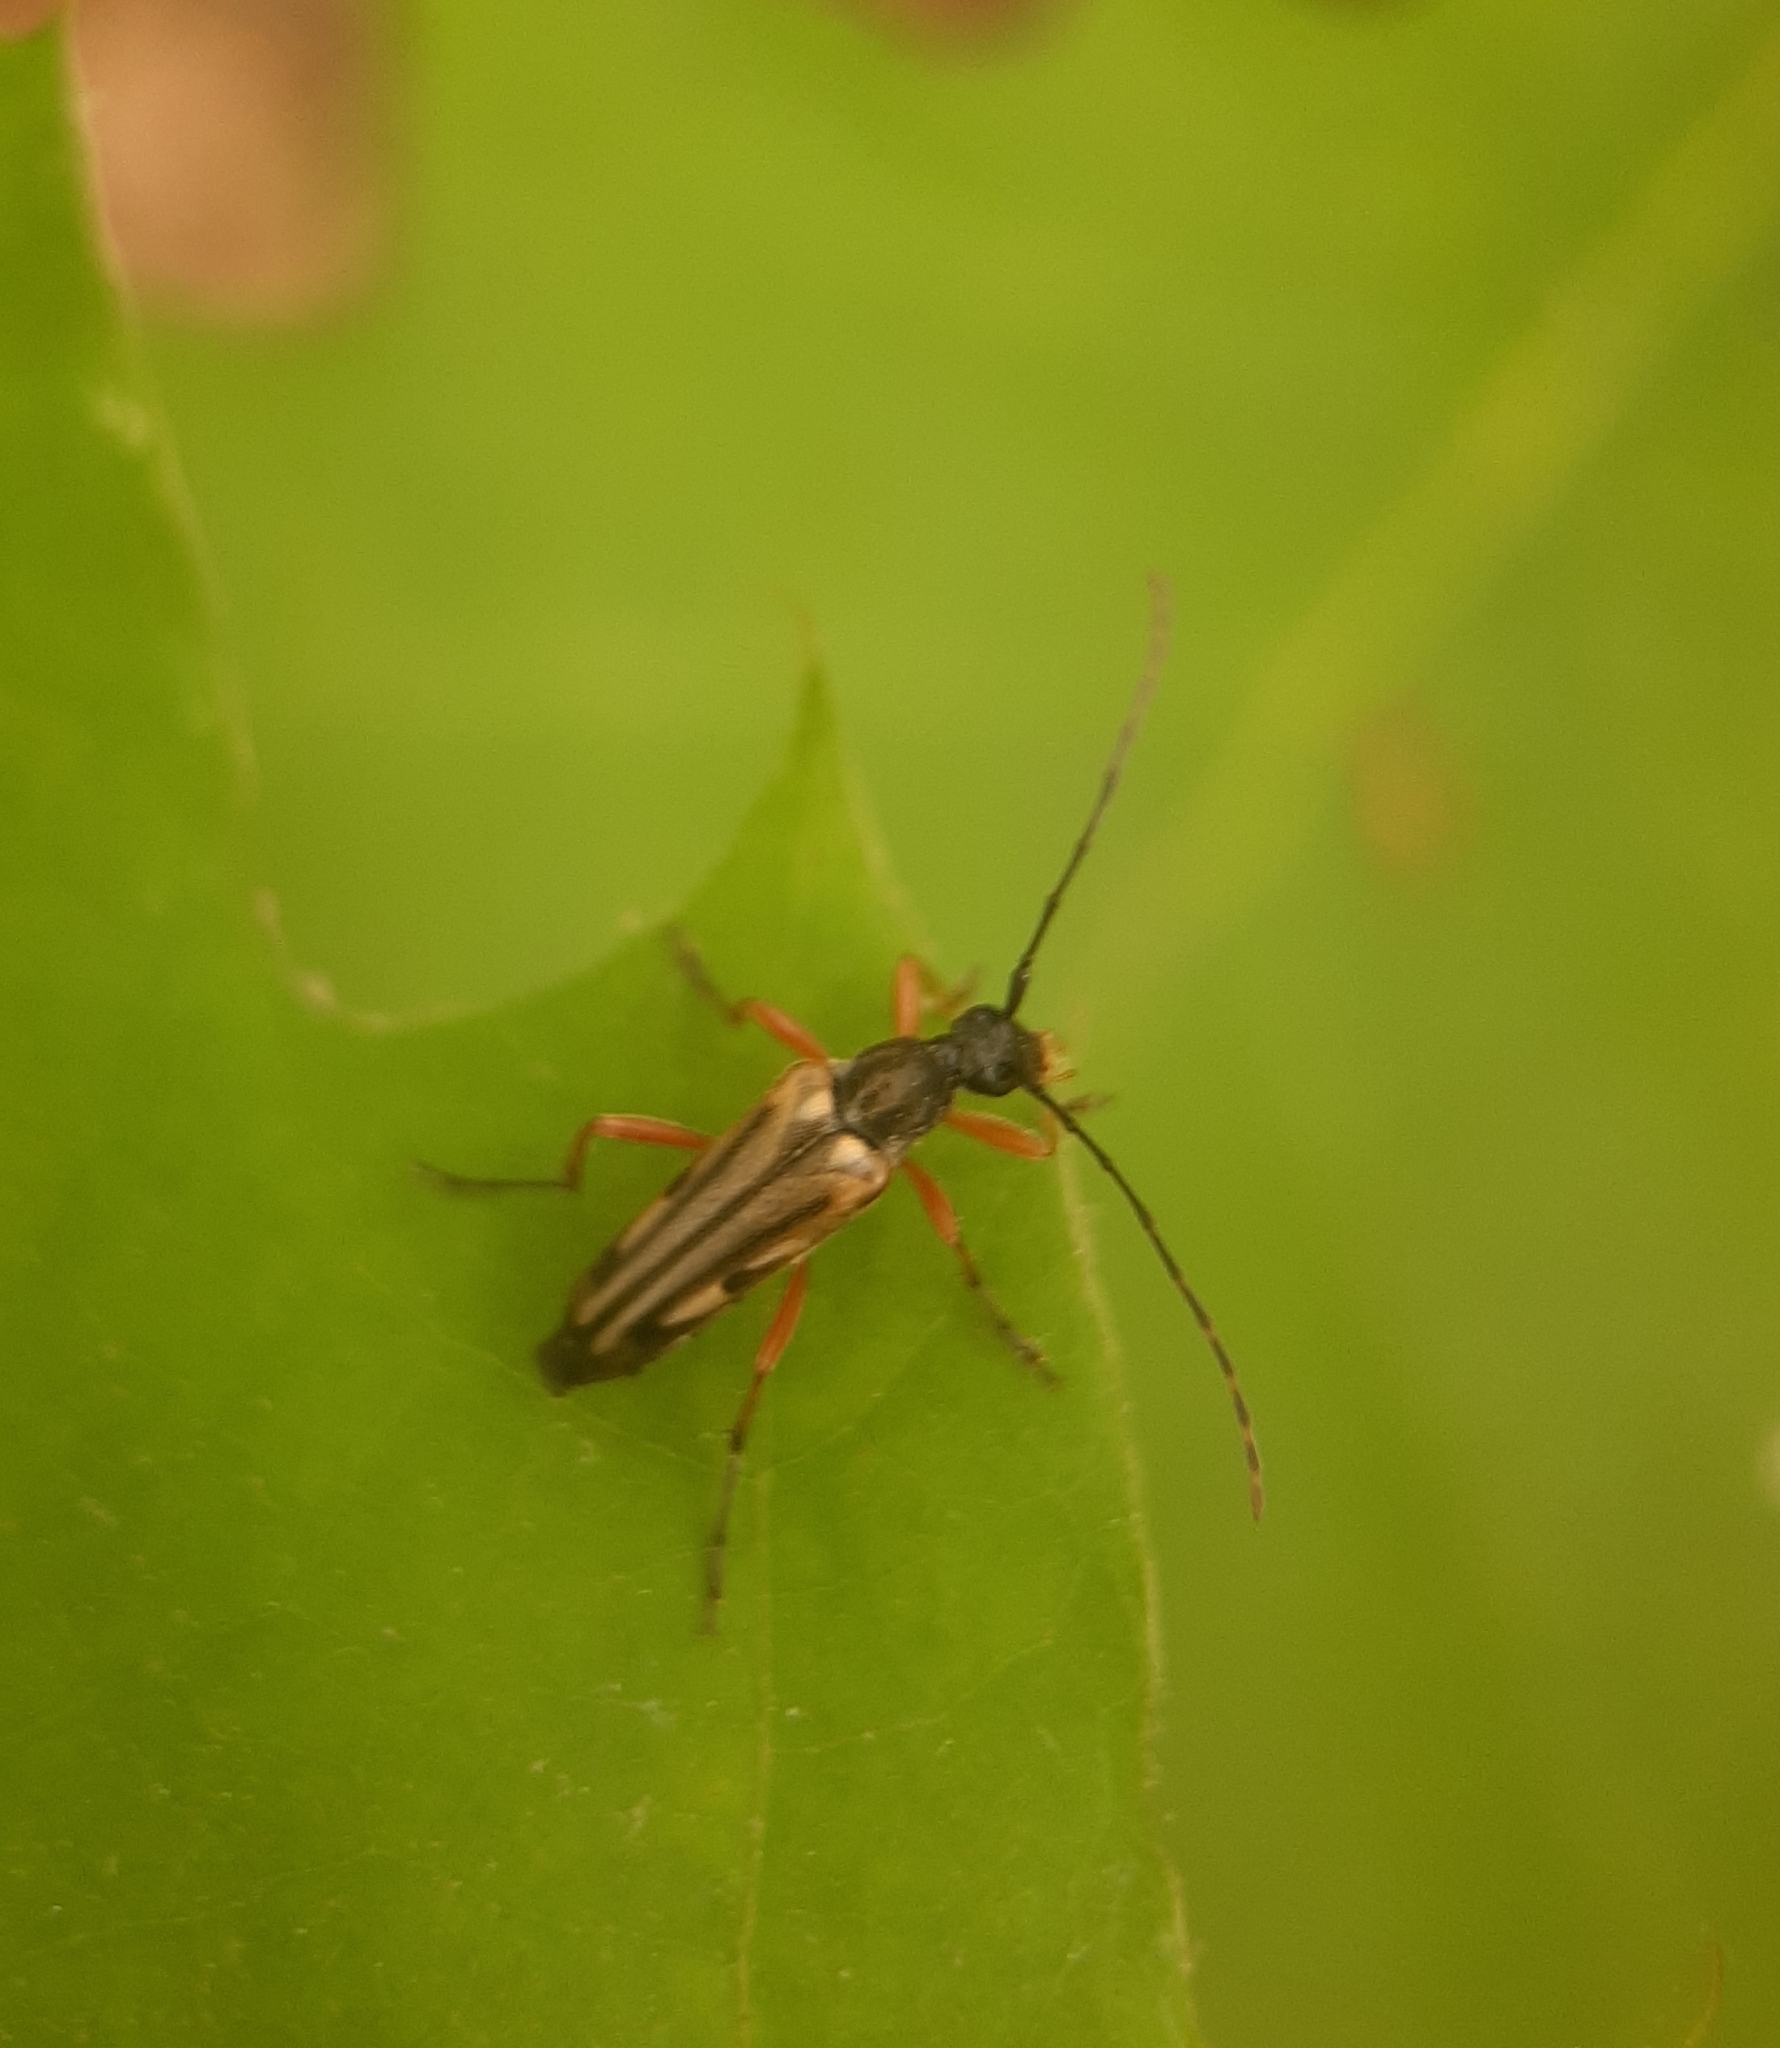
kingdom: Animalia
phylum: Arthropoda
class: Insecta
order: Coleoptera
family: Cerambycidae
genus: Analeptura
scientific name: Analeptura lineola
